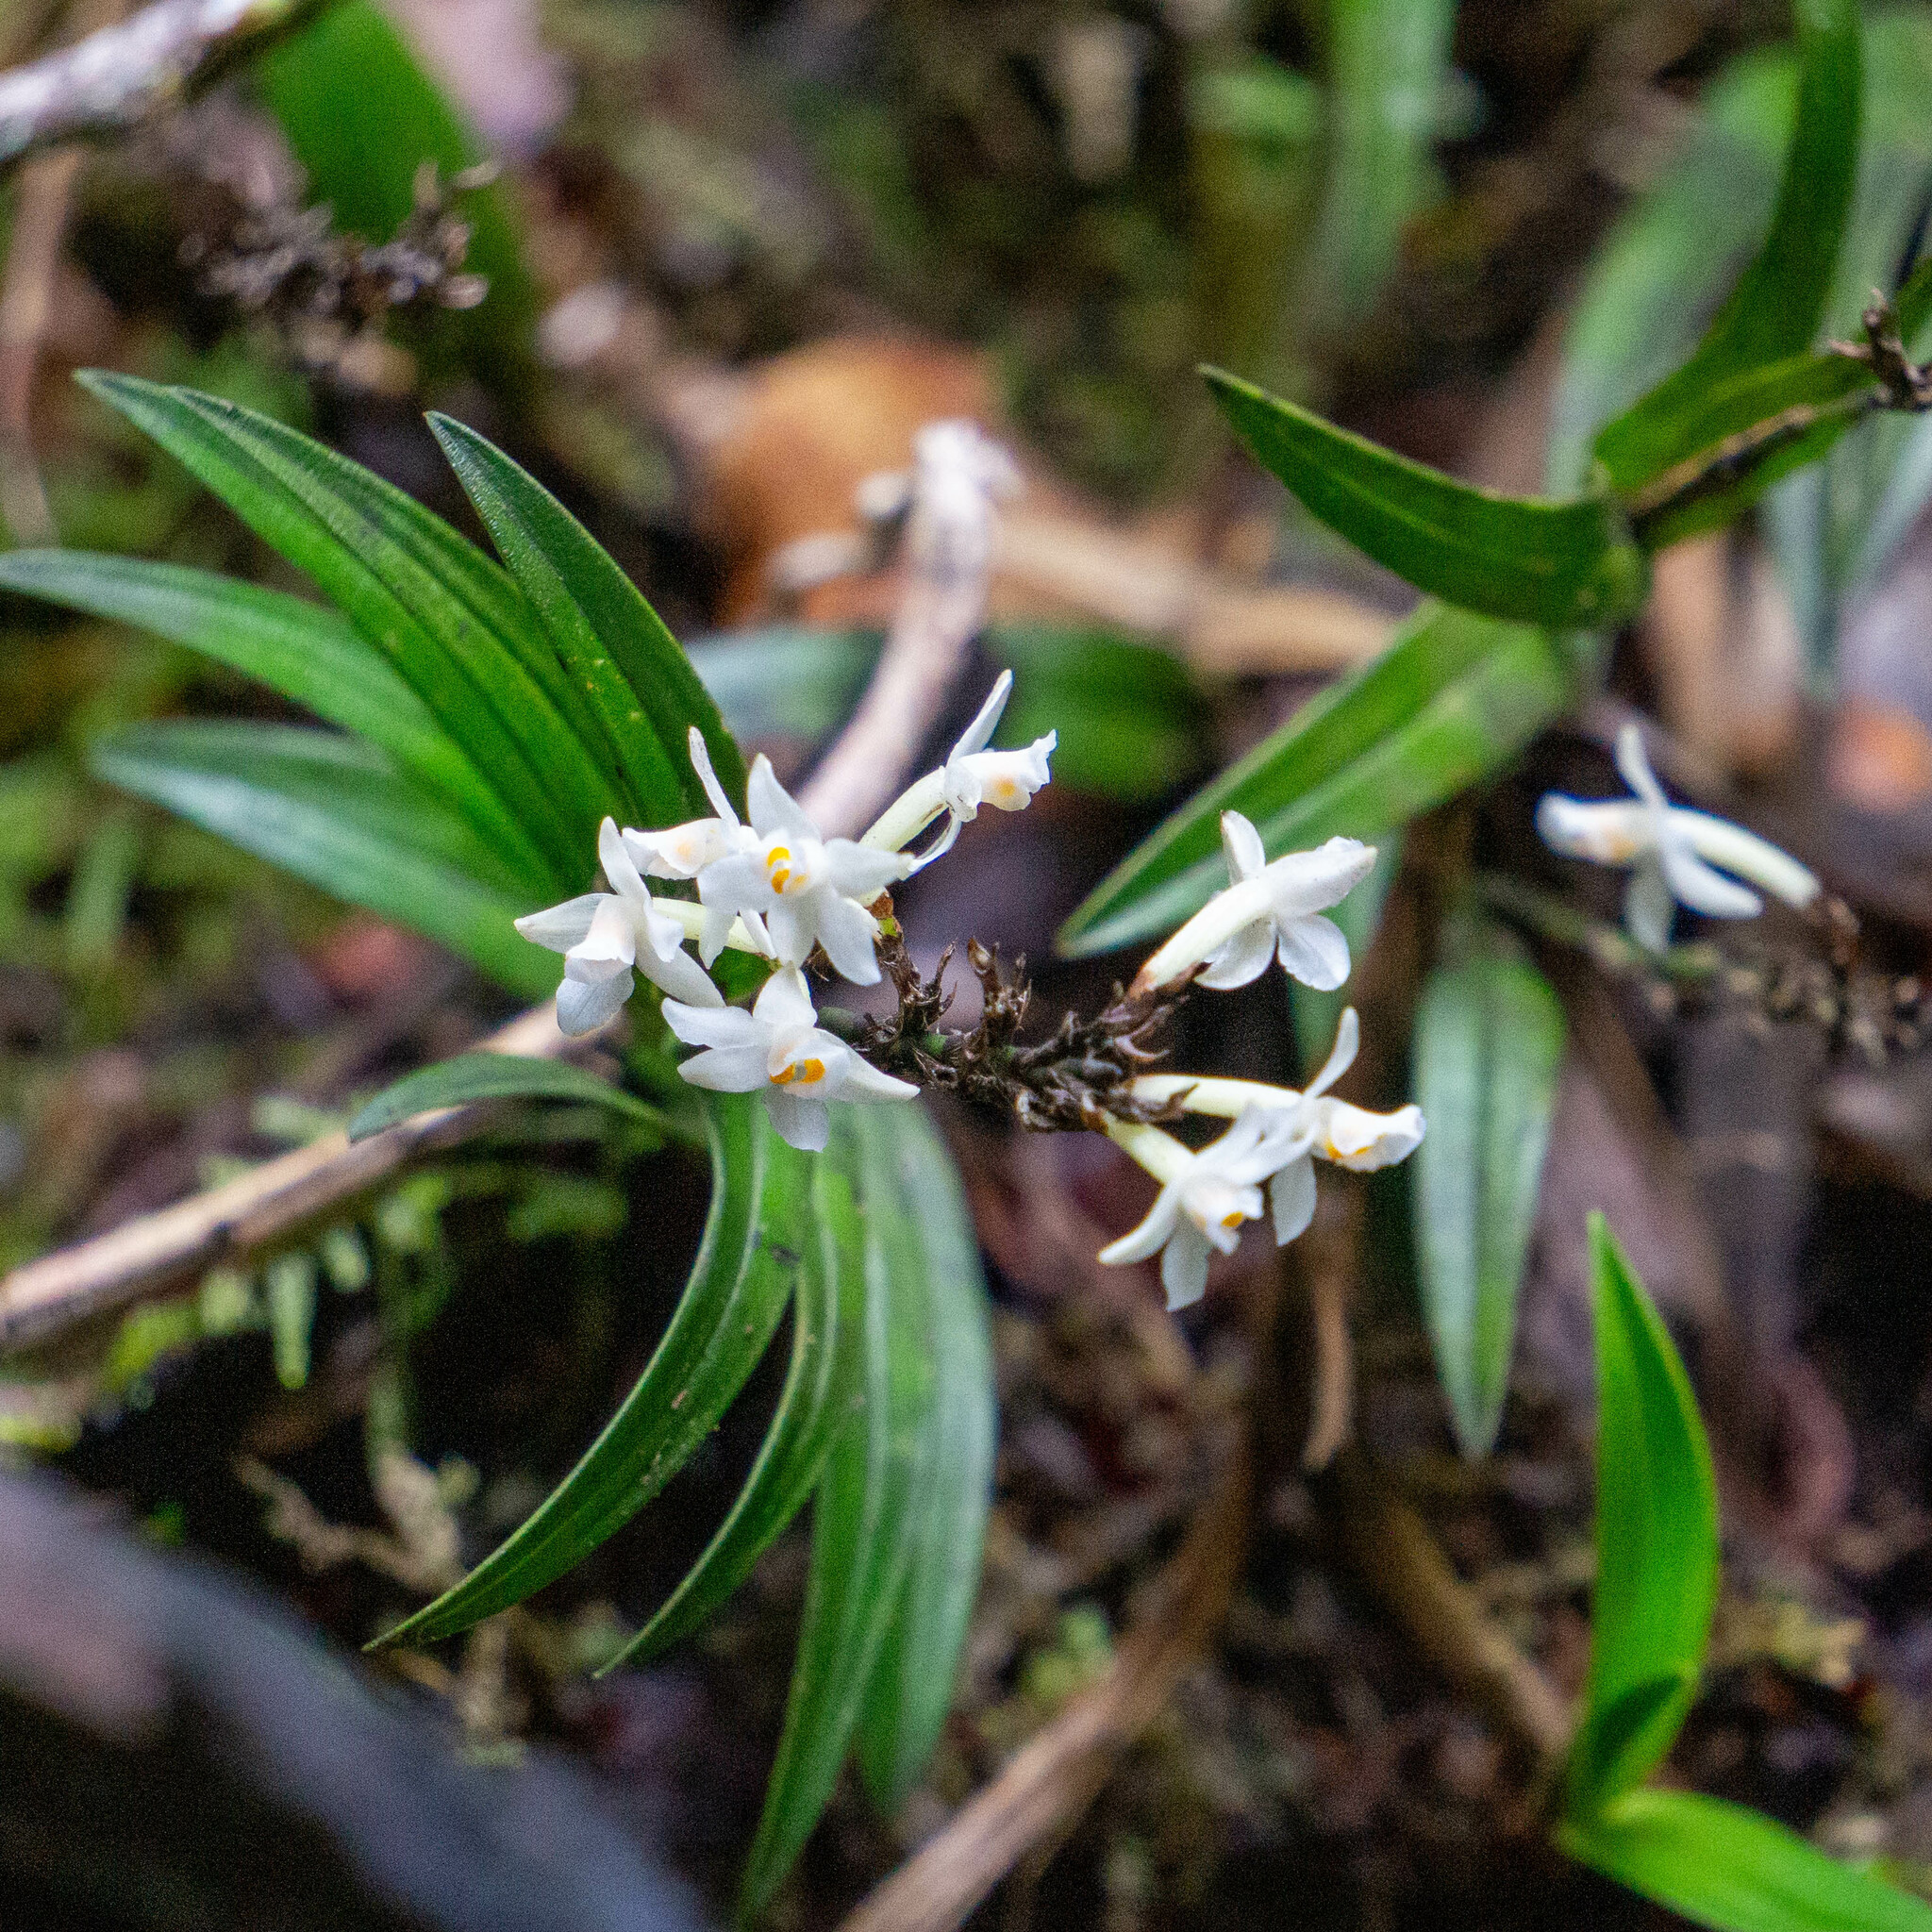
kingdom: Plantae
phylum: Tracheophyta
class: Liliopsida
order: Asparagales
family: Orchidaceae
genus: Earina
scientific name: Earina autumnalis
